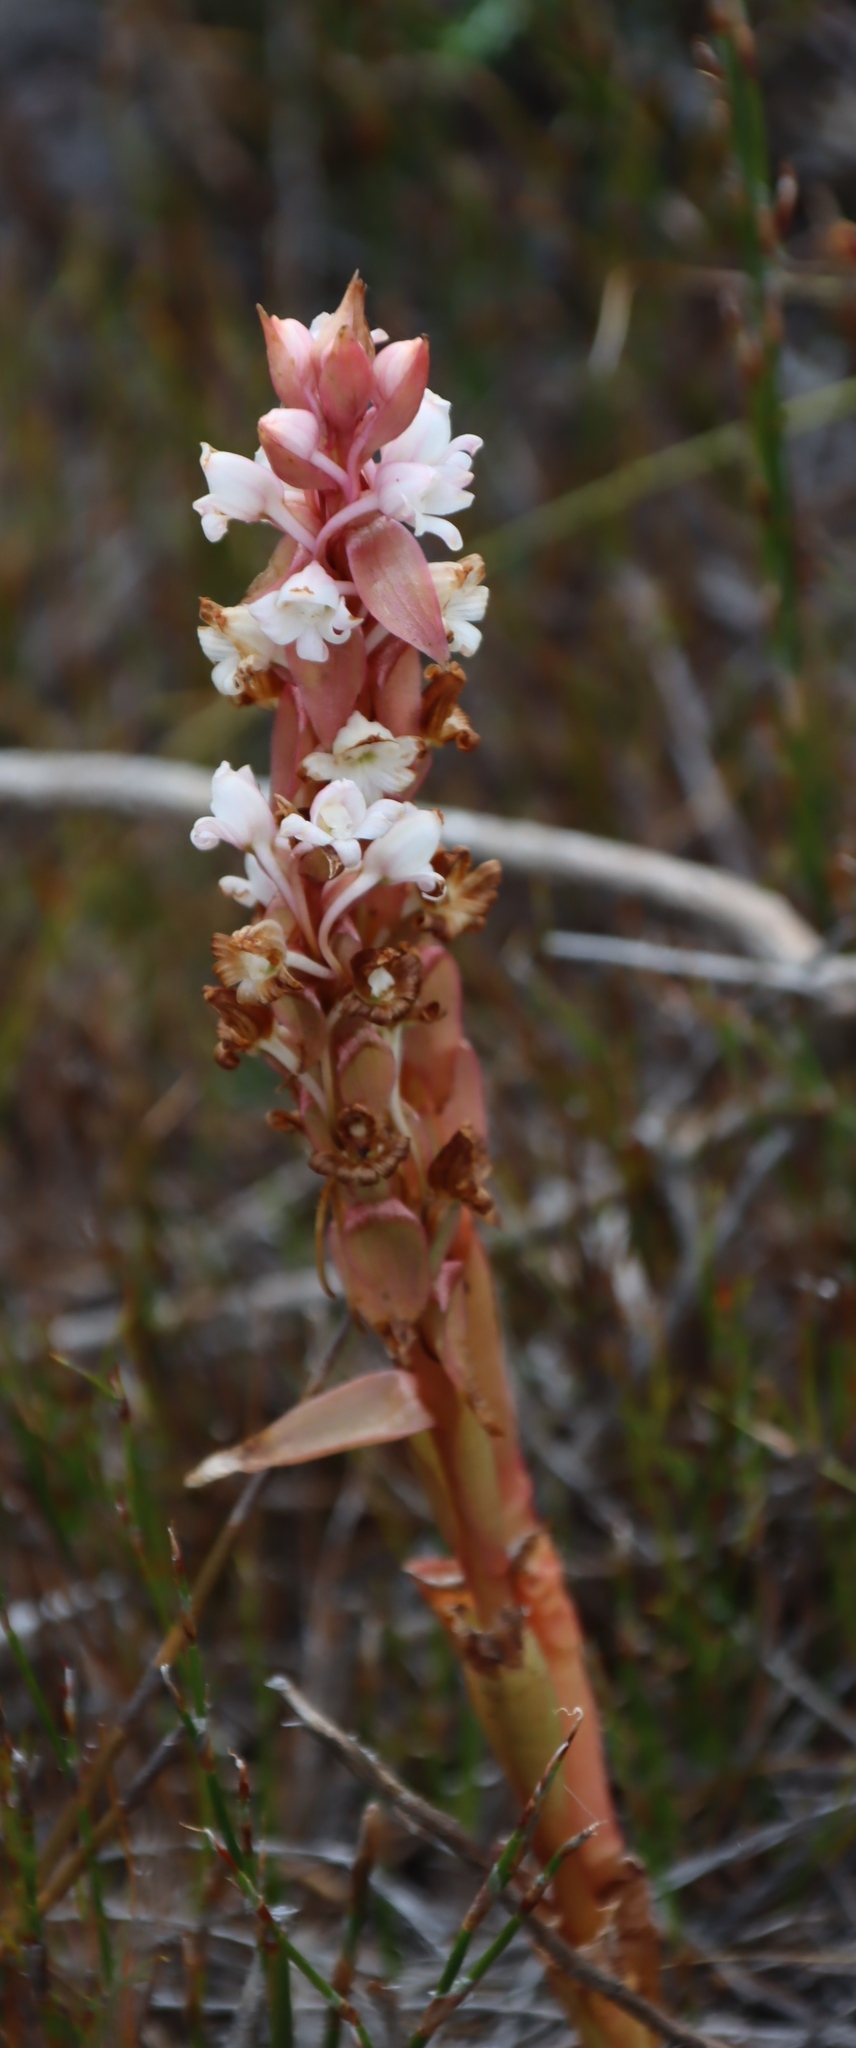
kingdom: Plantae
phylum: Tracheophyta
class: Liliopsida
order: Asparagales
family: Orchidaceae
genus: Satyrium
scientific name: Satyrium acuminatum
